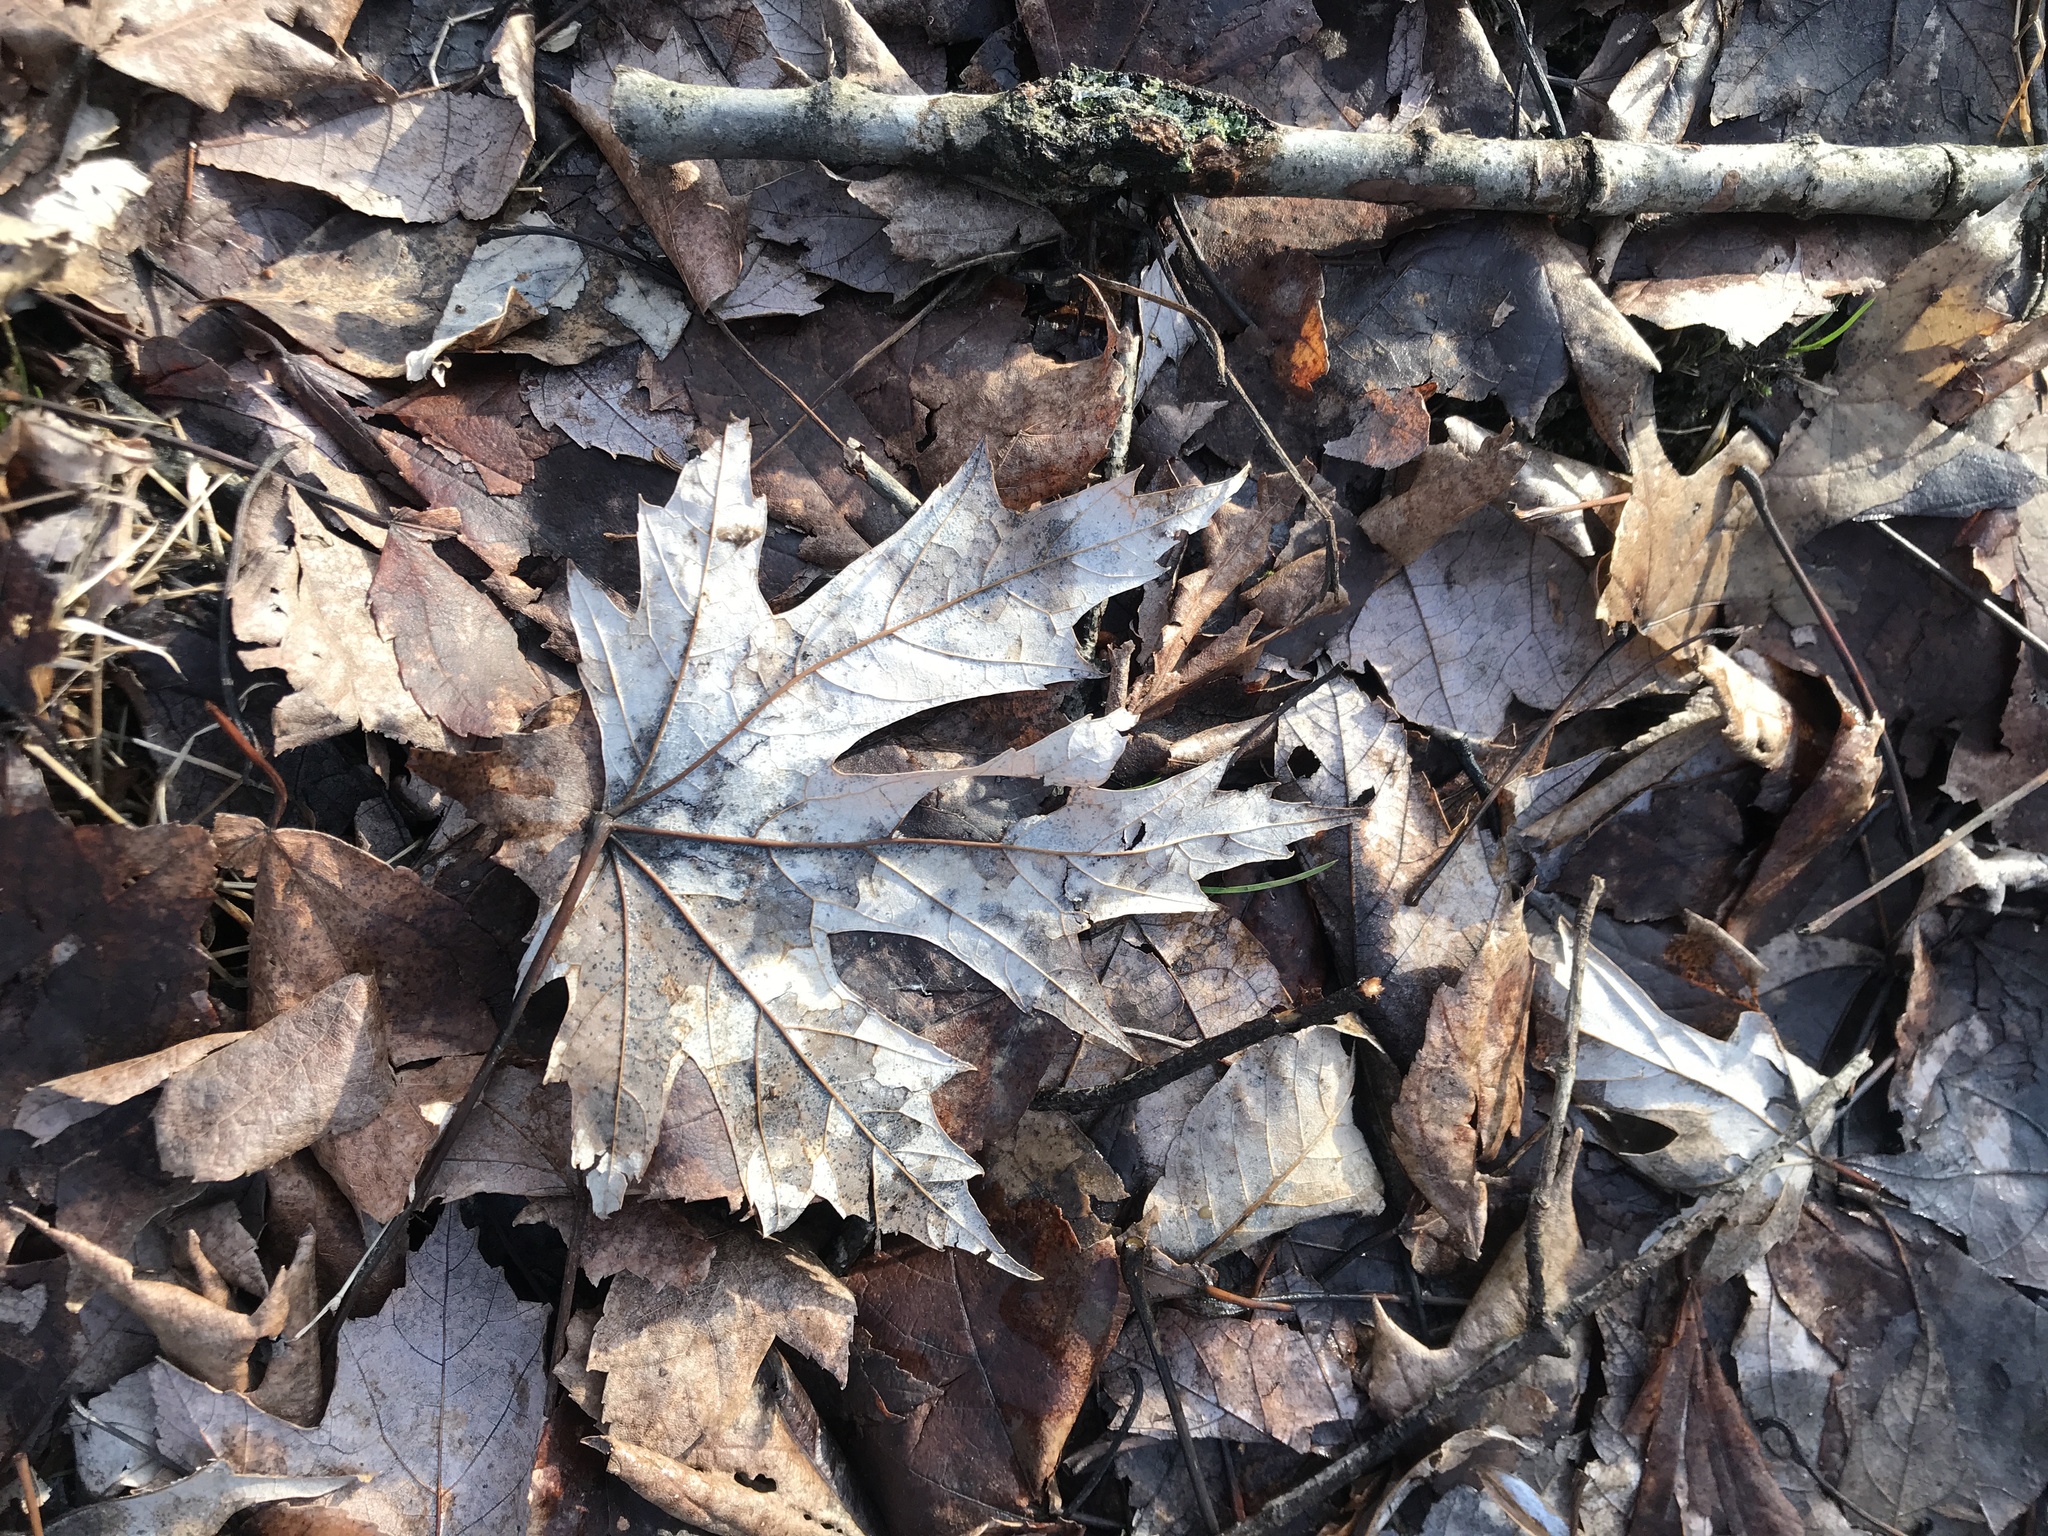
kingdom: Plantae
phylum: Tracheophyta
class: Magnoliopsida
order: Sapindales
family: Sapindaceae
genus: Acer
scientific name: Acer saccharinum
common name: Silver maple
